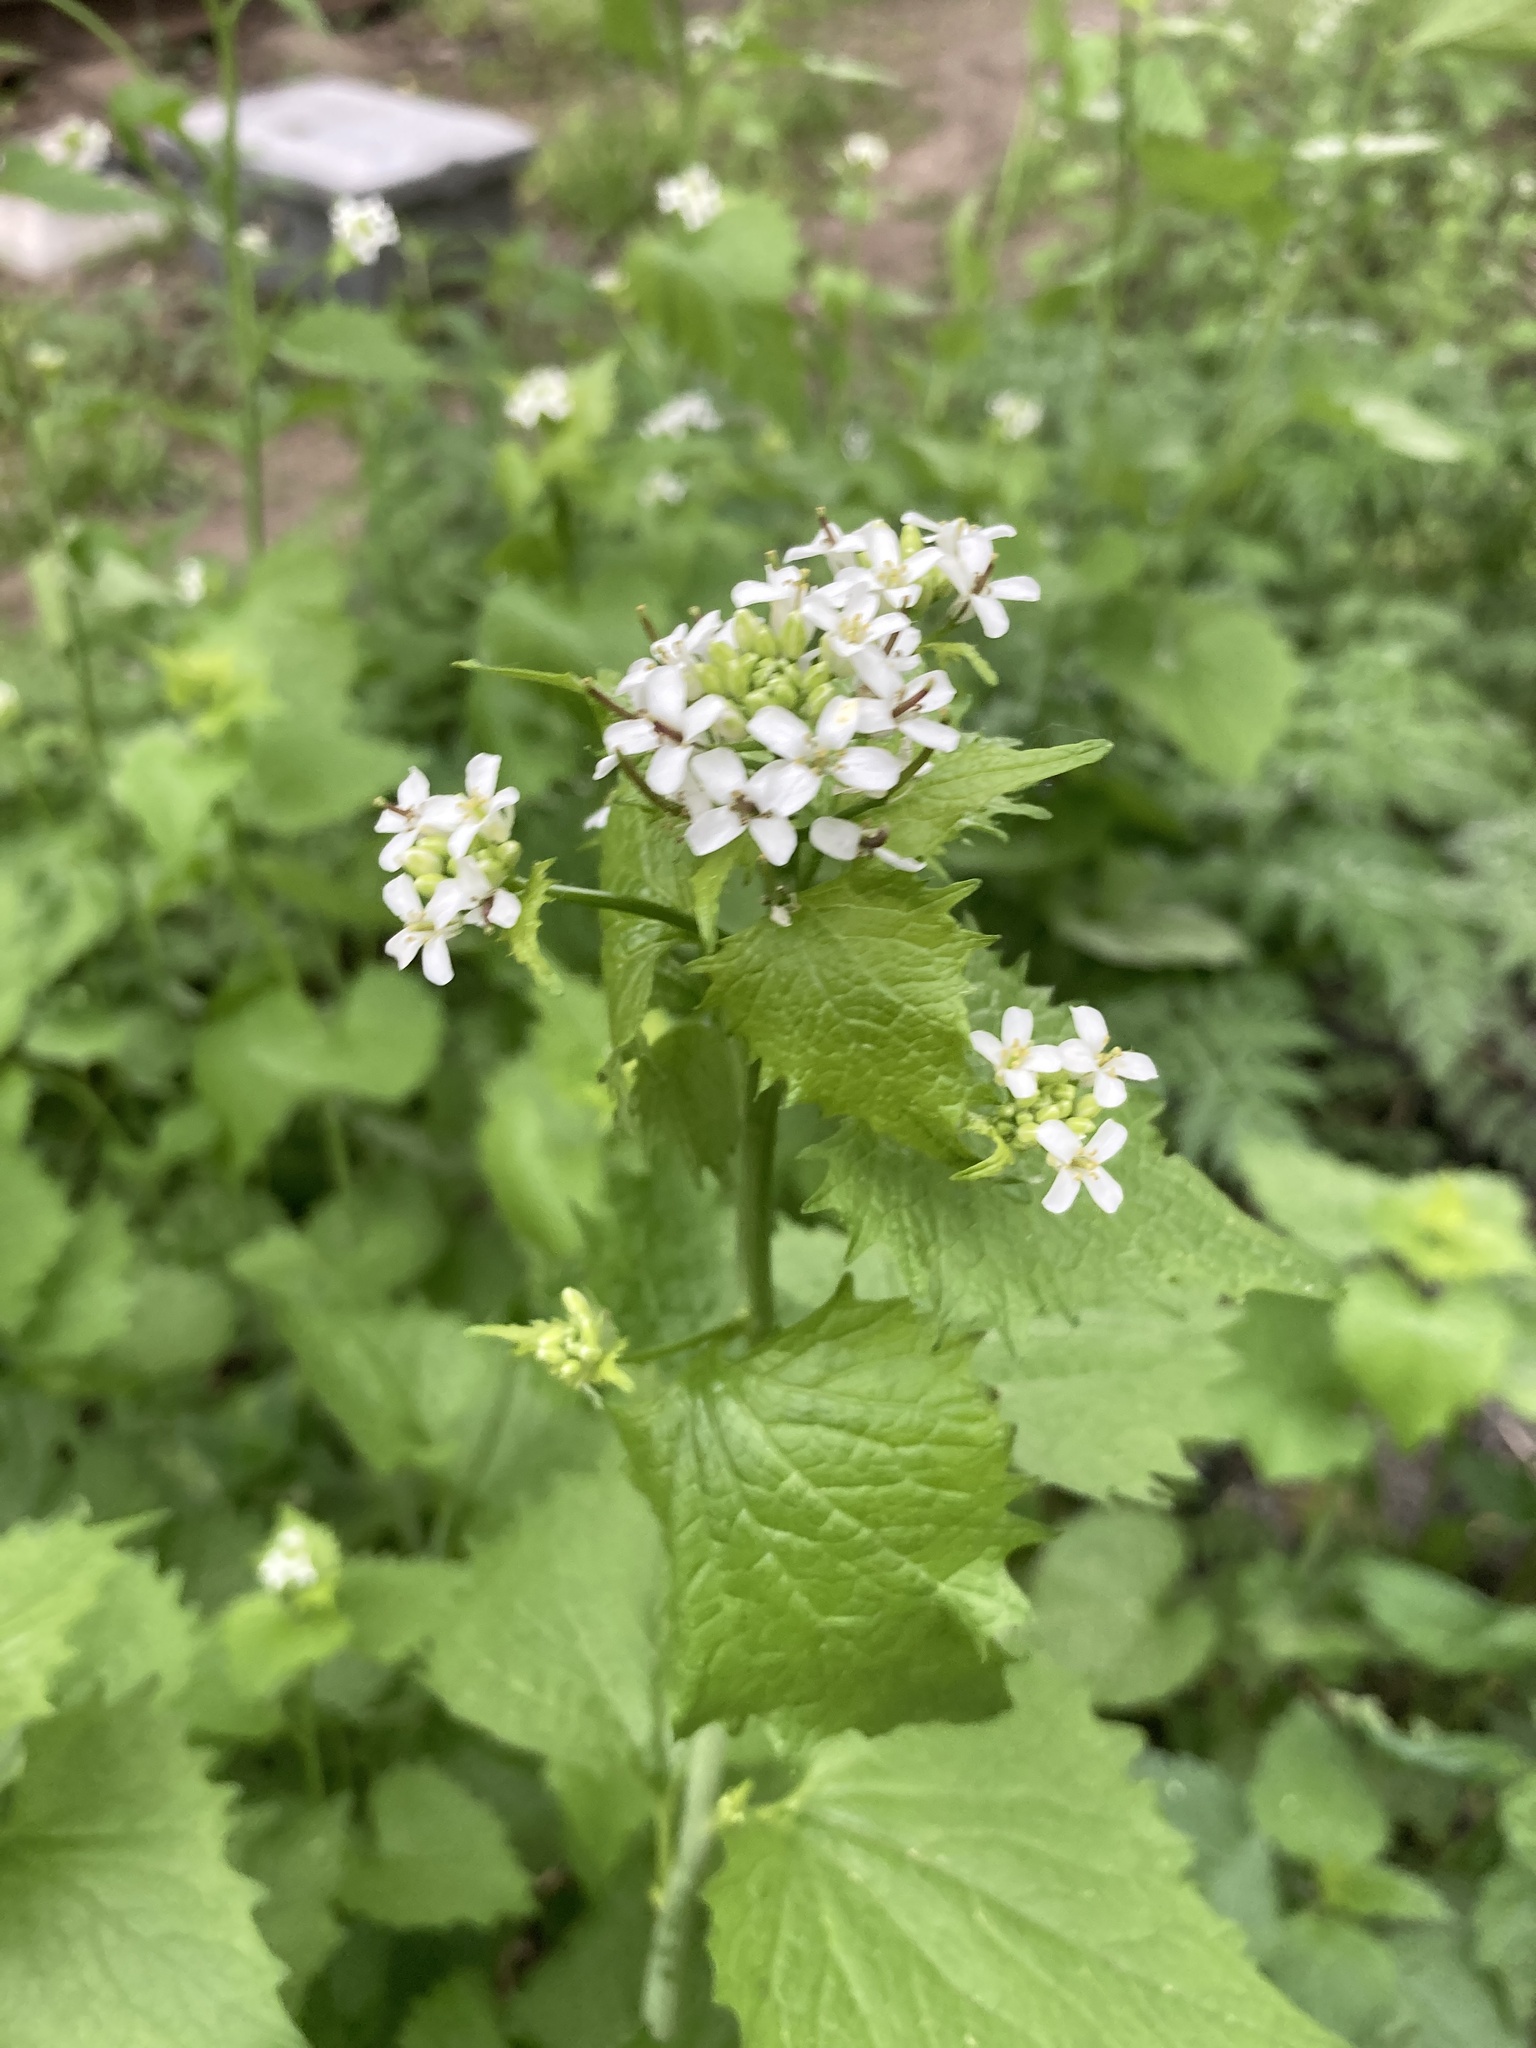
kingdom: Plantae
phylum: Tracheophyta
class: Magnoliopsida
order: Brassicales
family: Brassicaceae
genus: Alliaria
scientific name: Alliaria petiolata
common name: Garlic mustard
